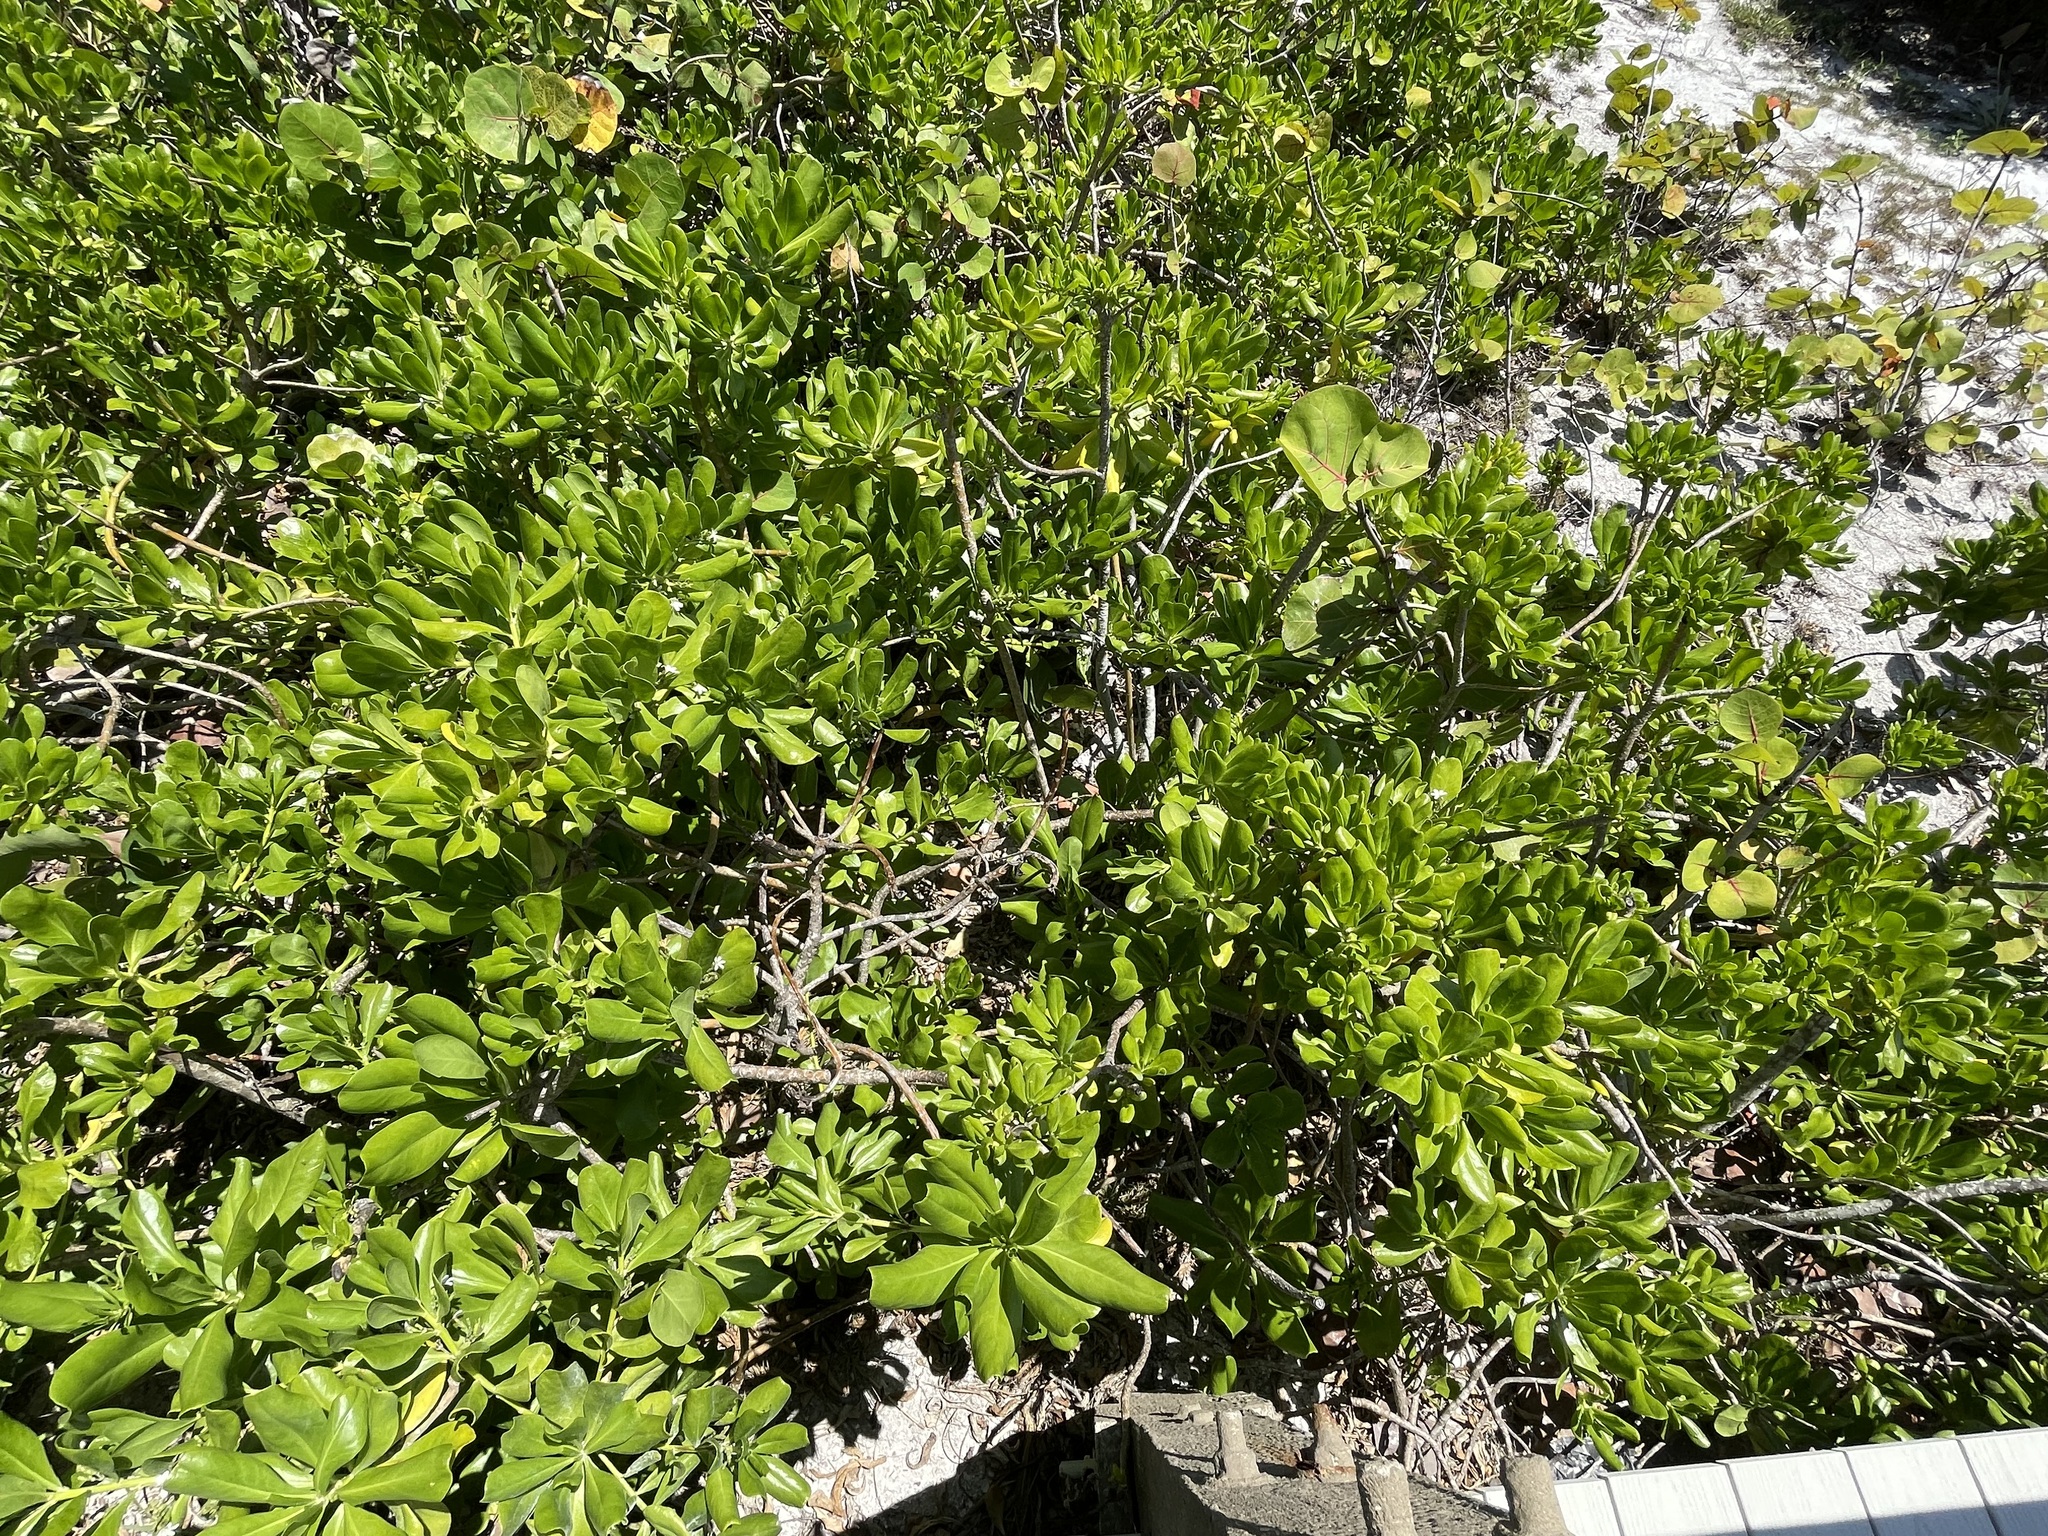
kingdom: Plantae
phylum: Tracheophyta
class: Magnoliopsida
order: Asterales
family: Goodeniaceae
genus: Scaevola
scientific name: Scaevola taccada
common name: Sea lettucetree
